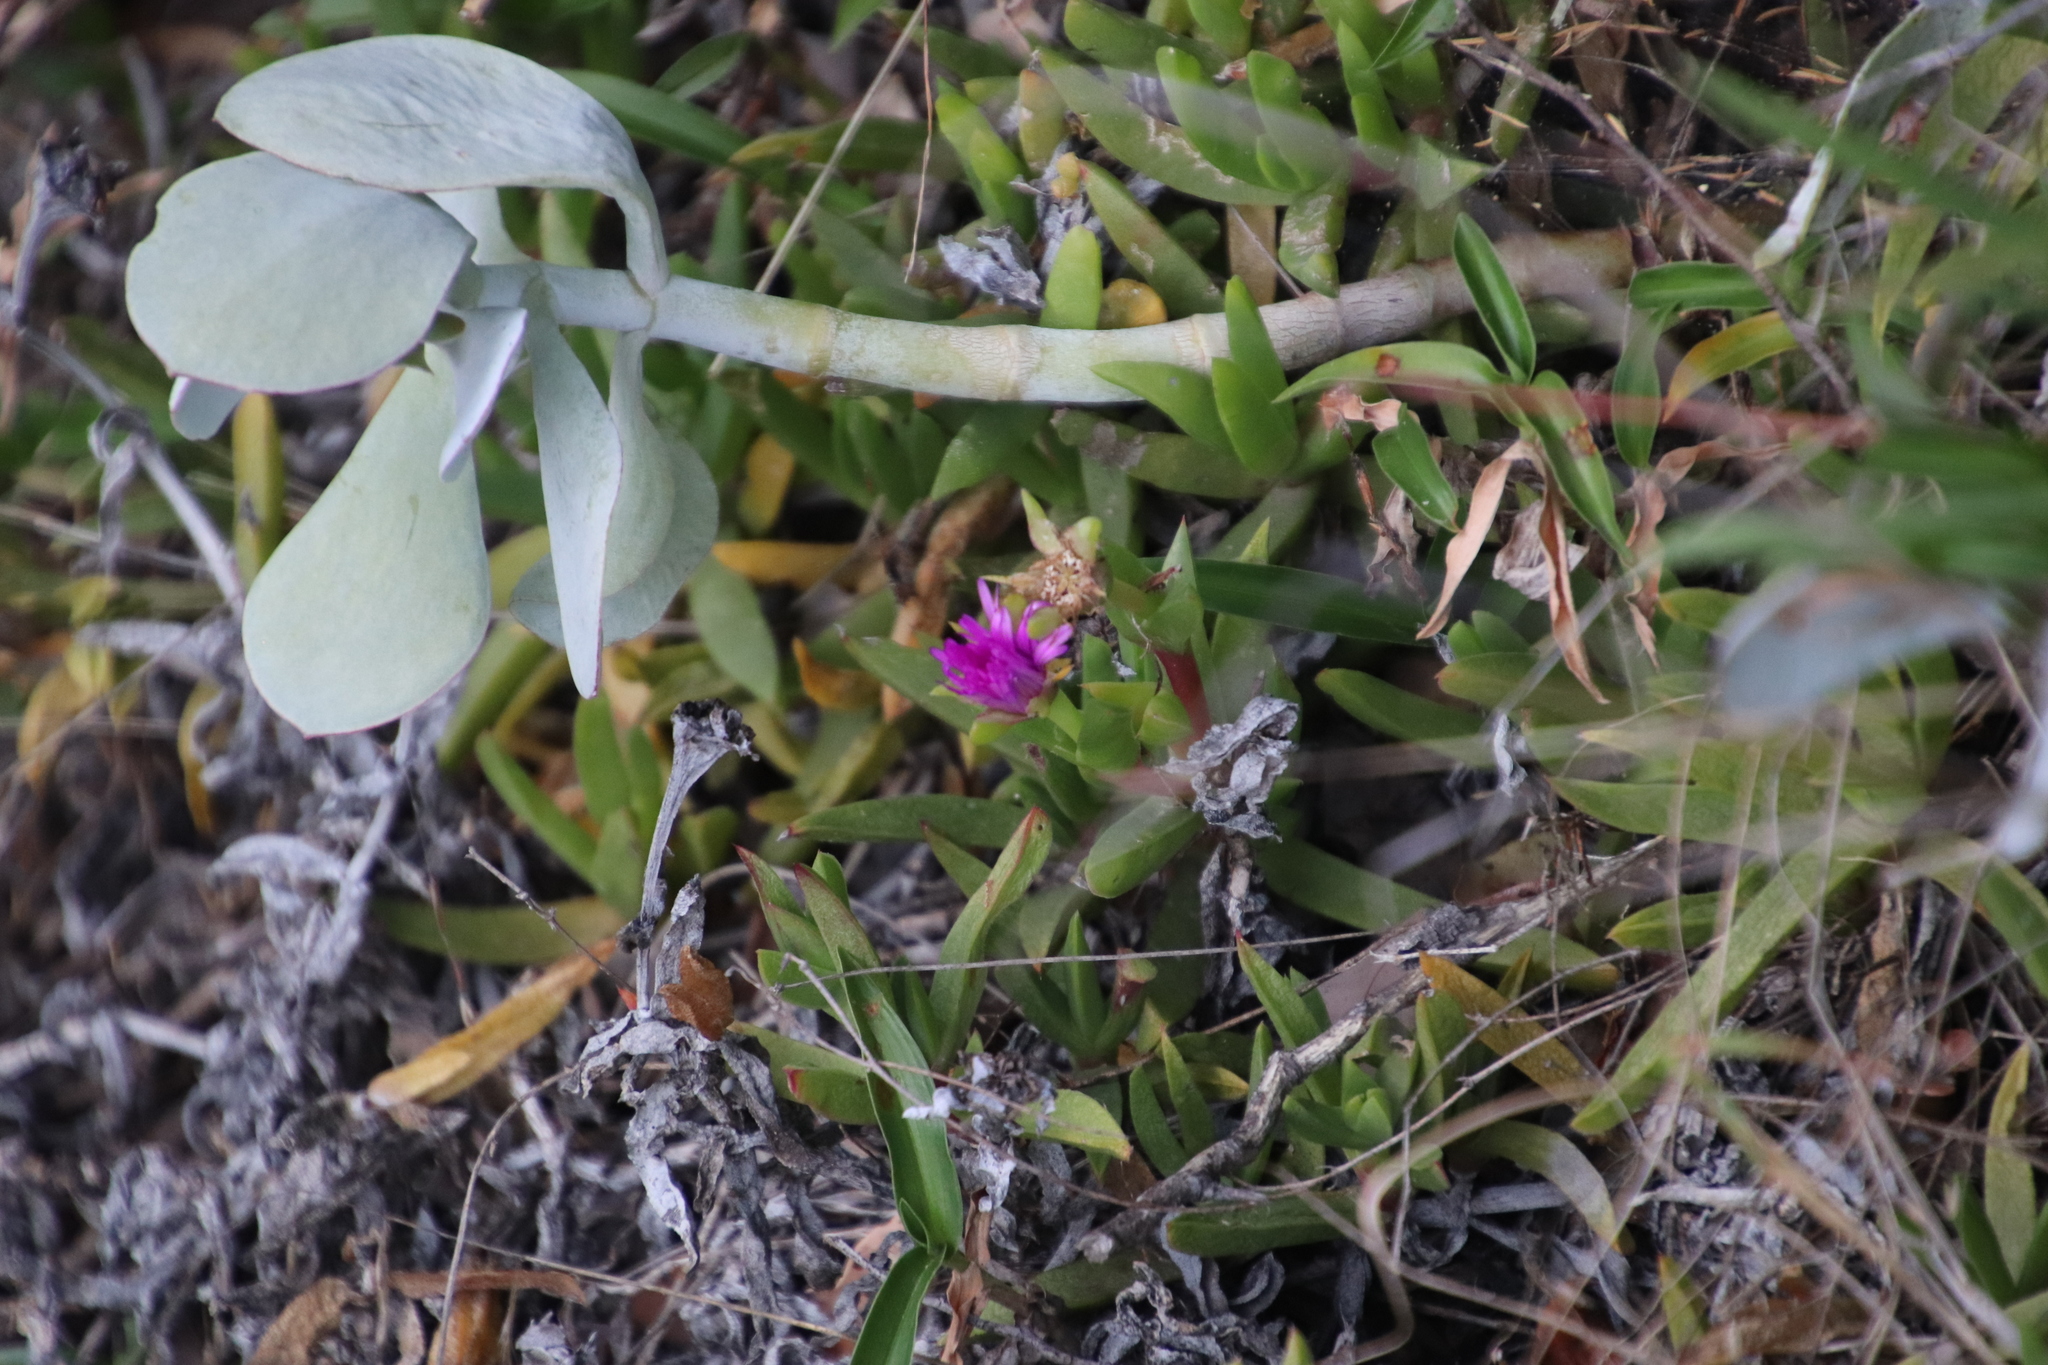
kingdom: Plantae
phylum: Tracheophyta
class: Magnoliopsida
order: Caryophyllales
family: Aizoaceae
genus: Ruschia
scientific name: Ruschia sarmentosa
